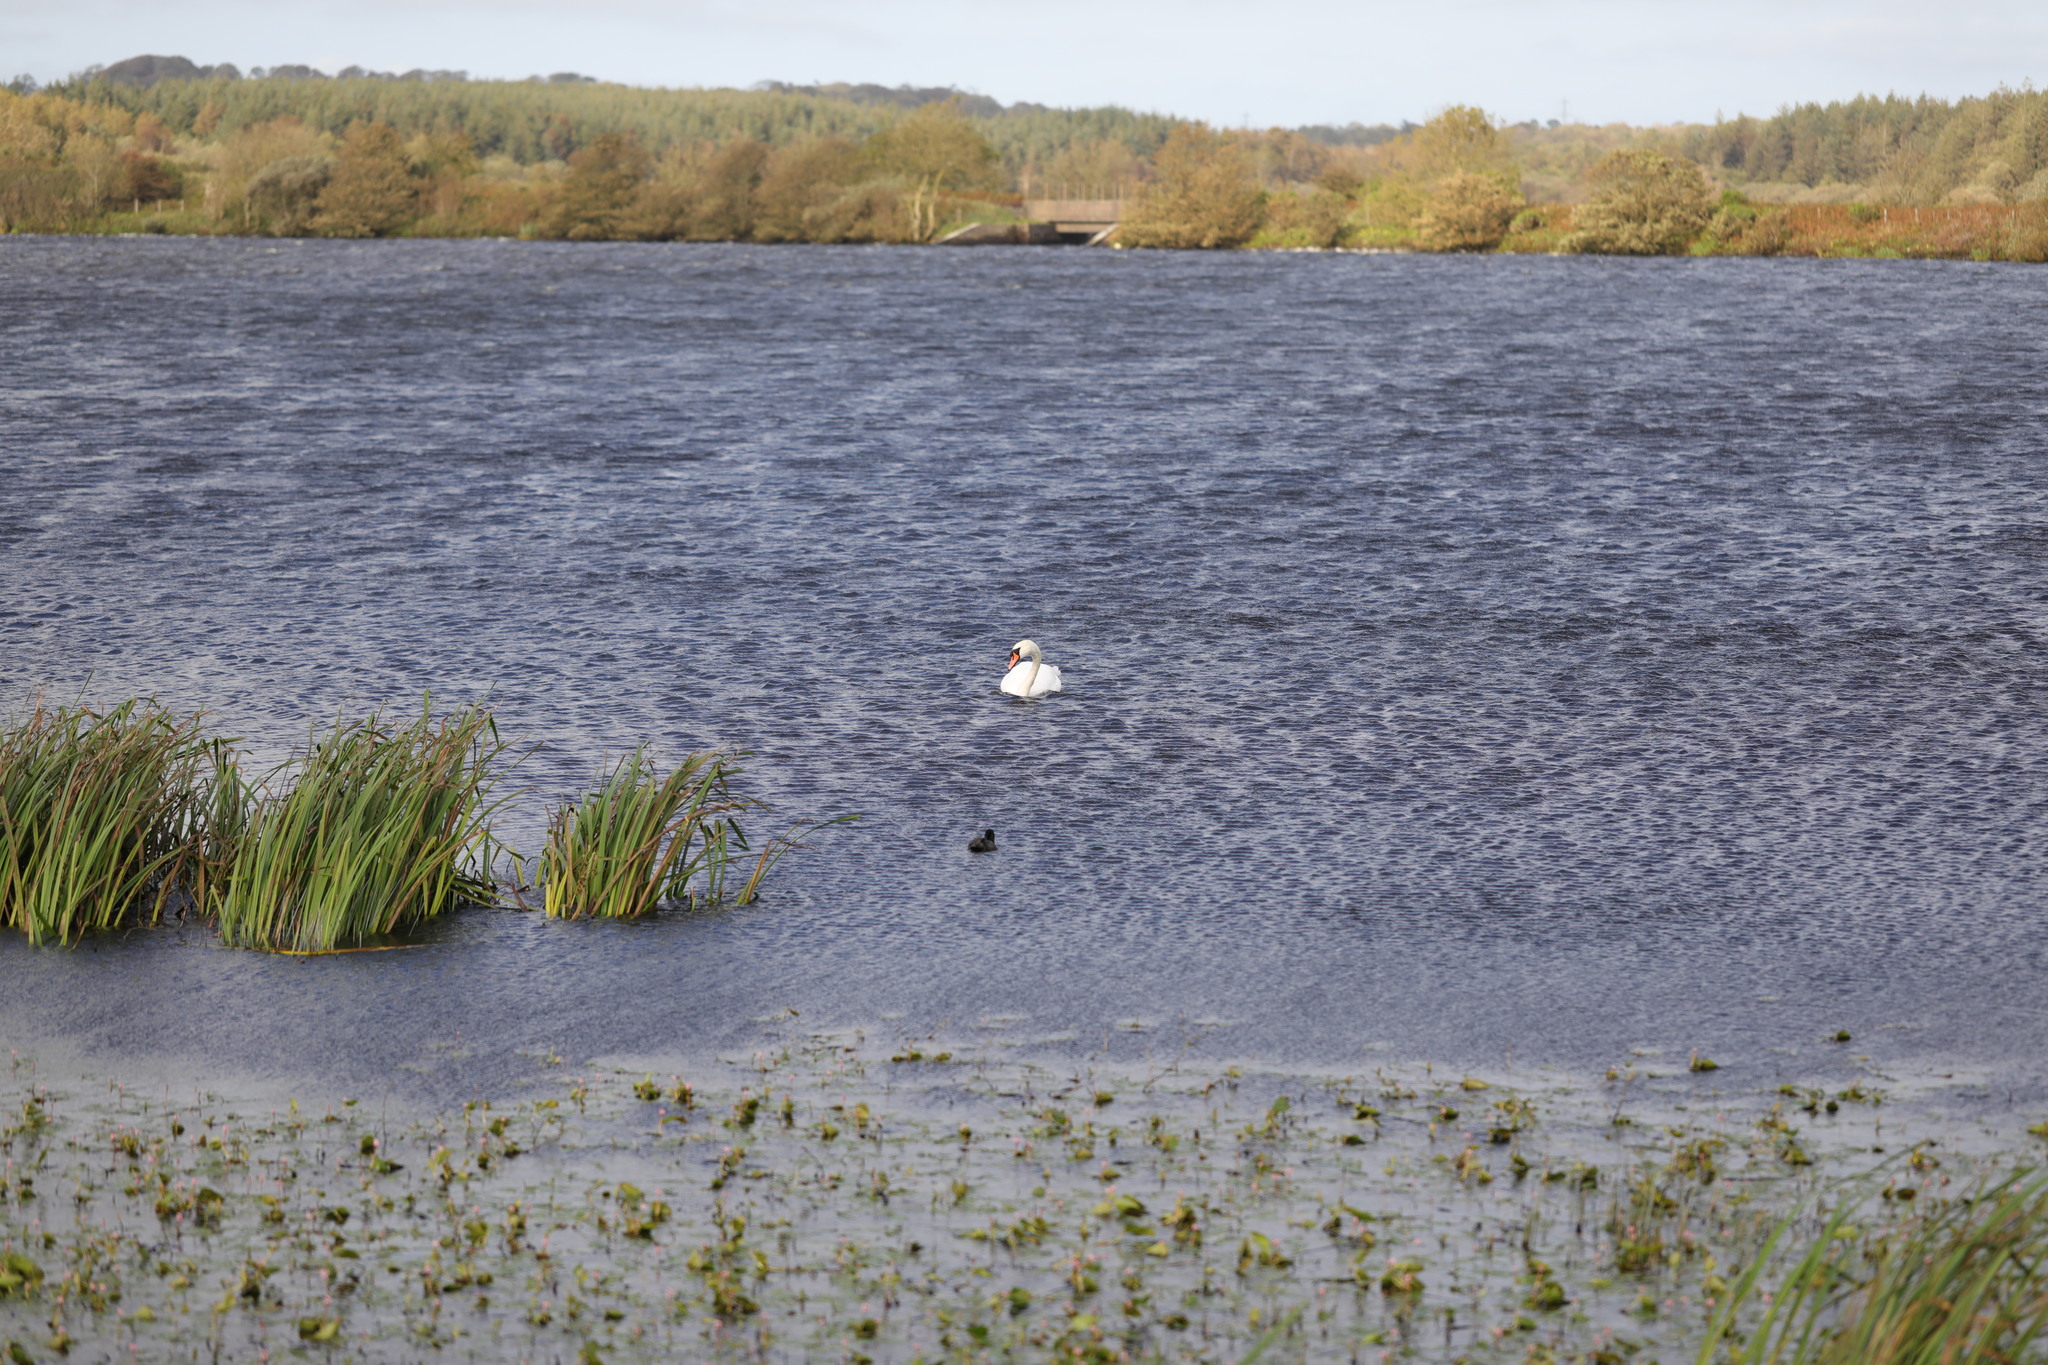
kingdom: Animalia
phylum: Chordata
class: Aves
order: Anseriformes
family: Anatidae
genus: Cygnus
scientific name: Cygnus olor
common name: Mute swan
